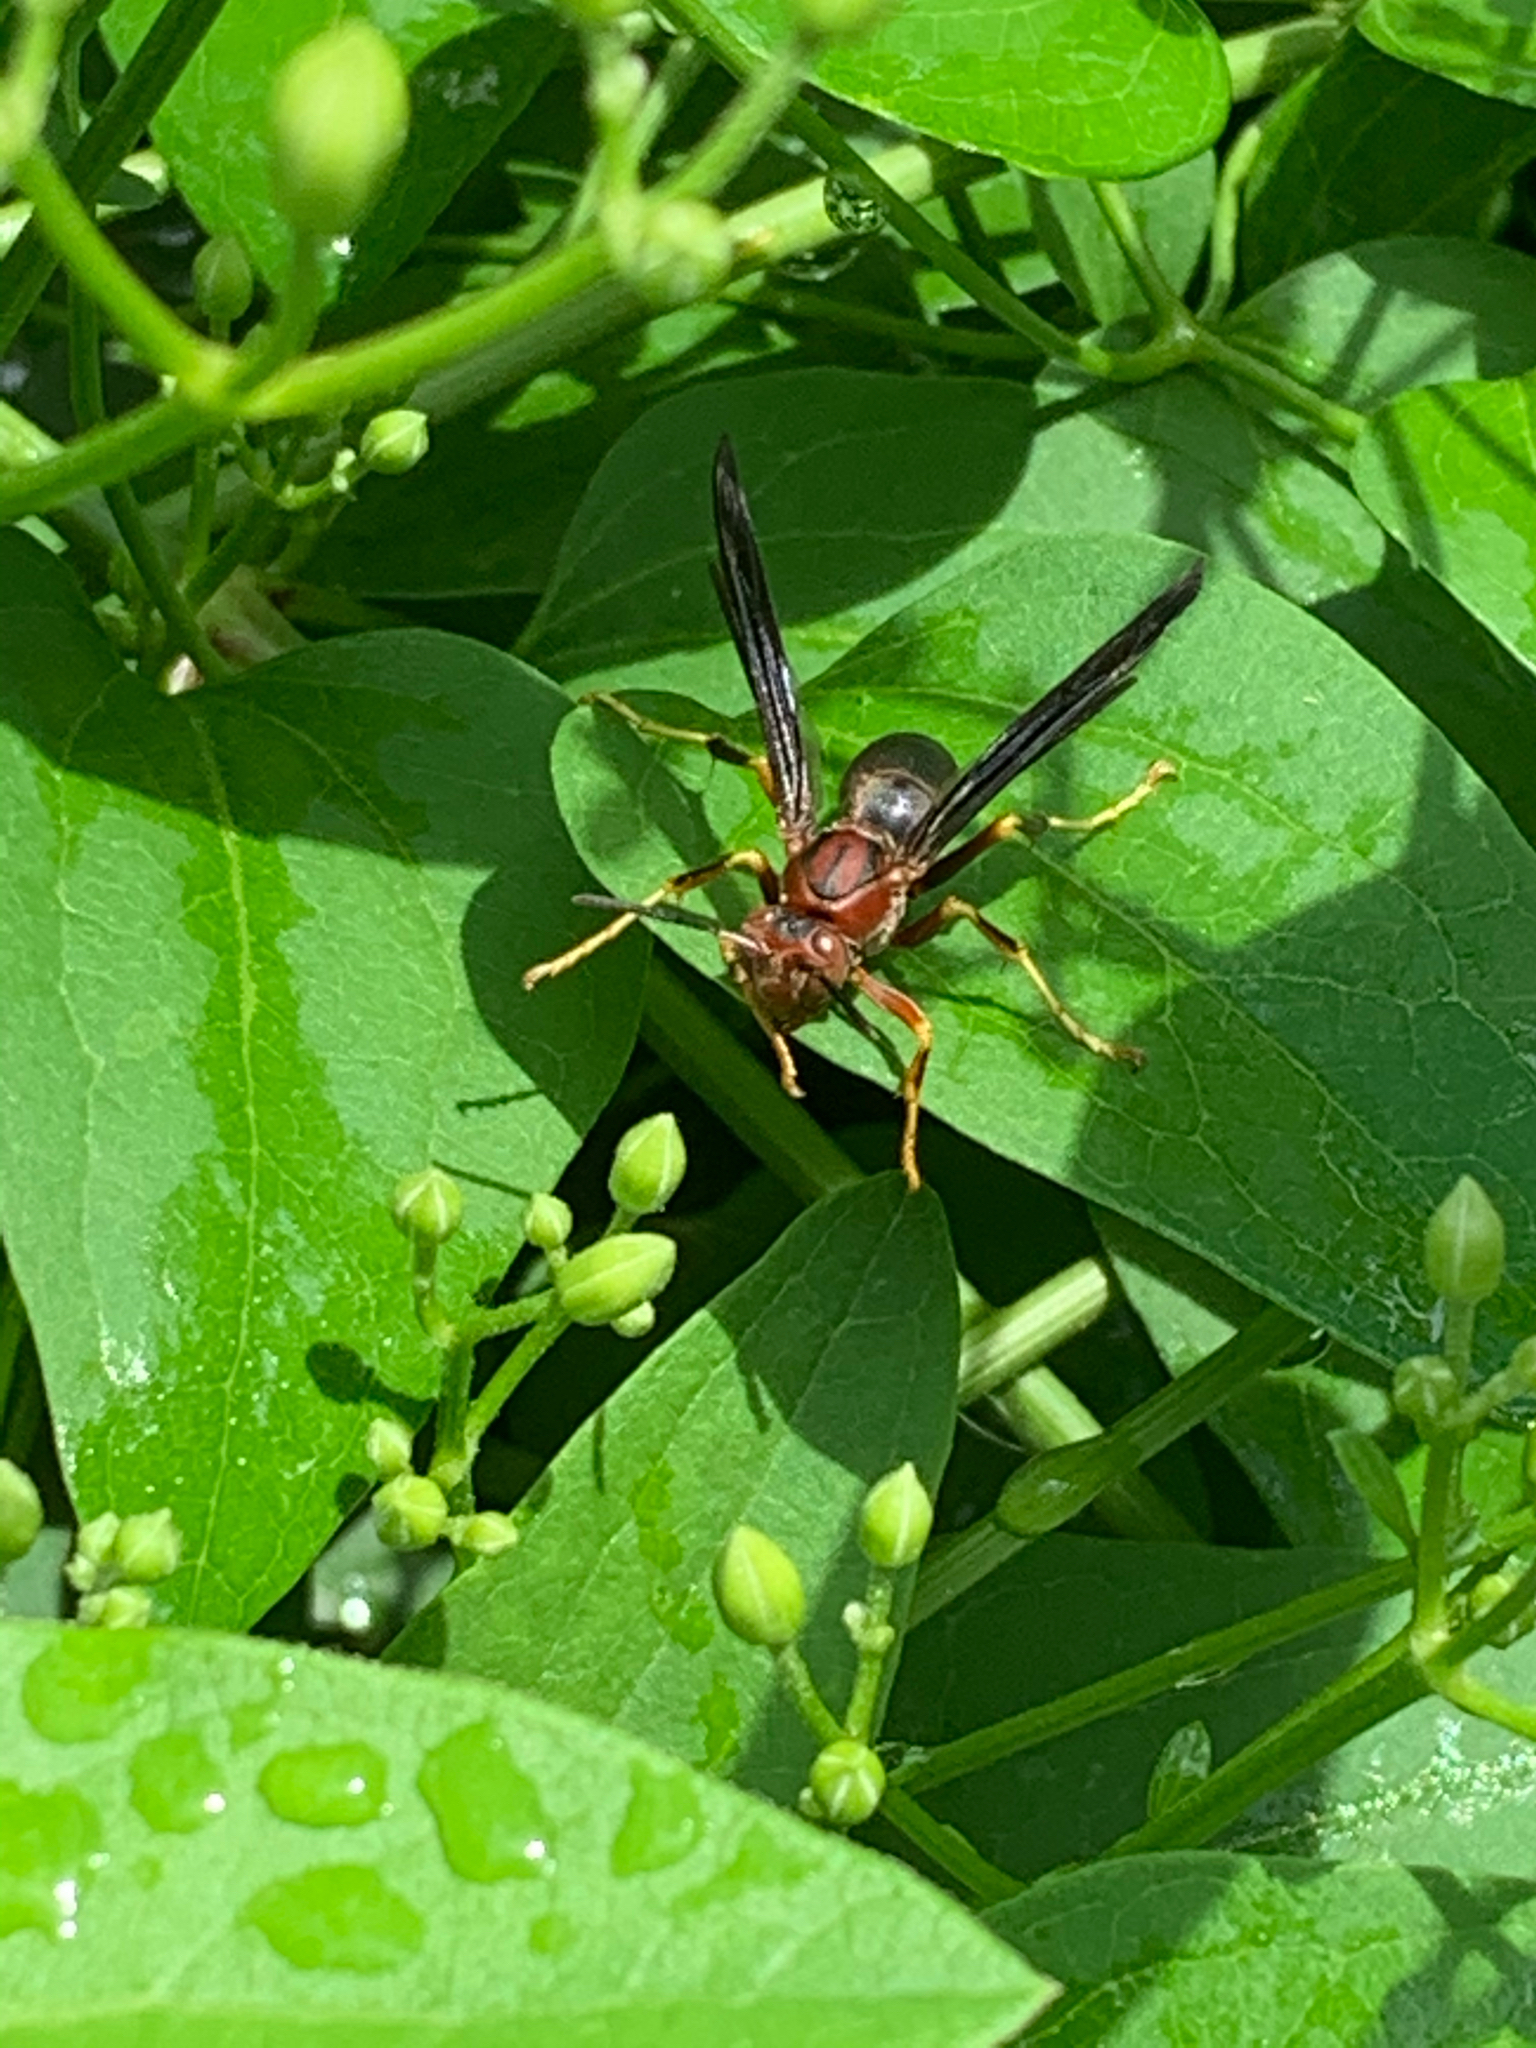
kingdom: Animalia
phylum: Arthropoda
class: Insecta
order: Hymenoptera
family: Eumenidae
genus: Polistes
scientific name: Polistes metricus
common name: Metric paper wasp
